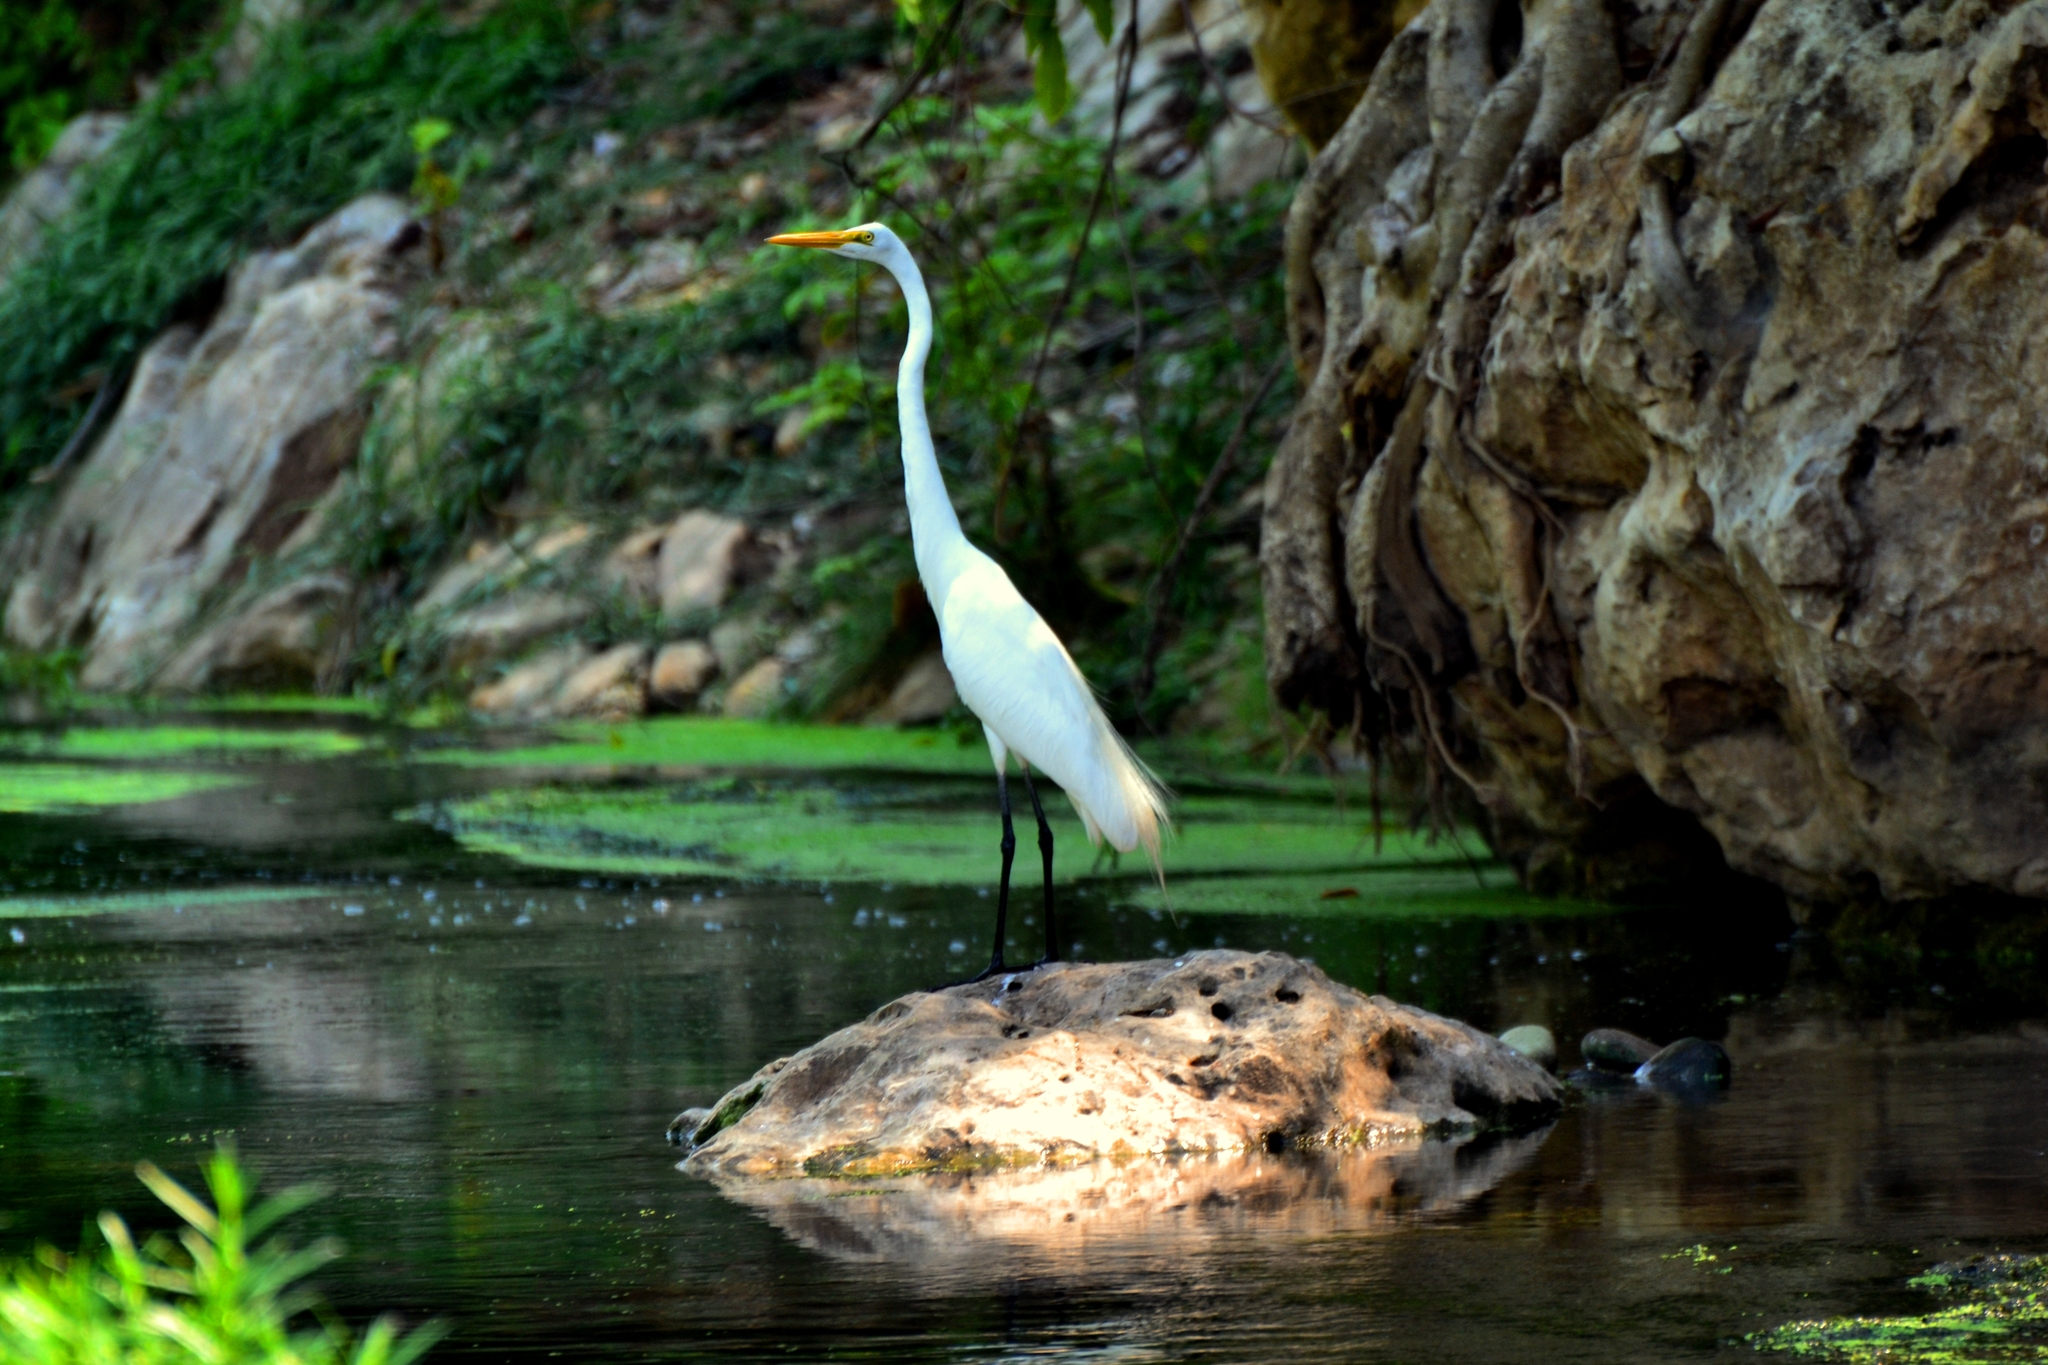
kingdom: Animalia
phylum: Chordata
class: Aves
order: Pelecaniformes
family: Ardeidae
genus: Ardea
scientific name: Ardea alba
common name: Great egret
